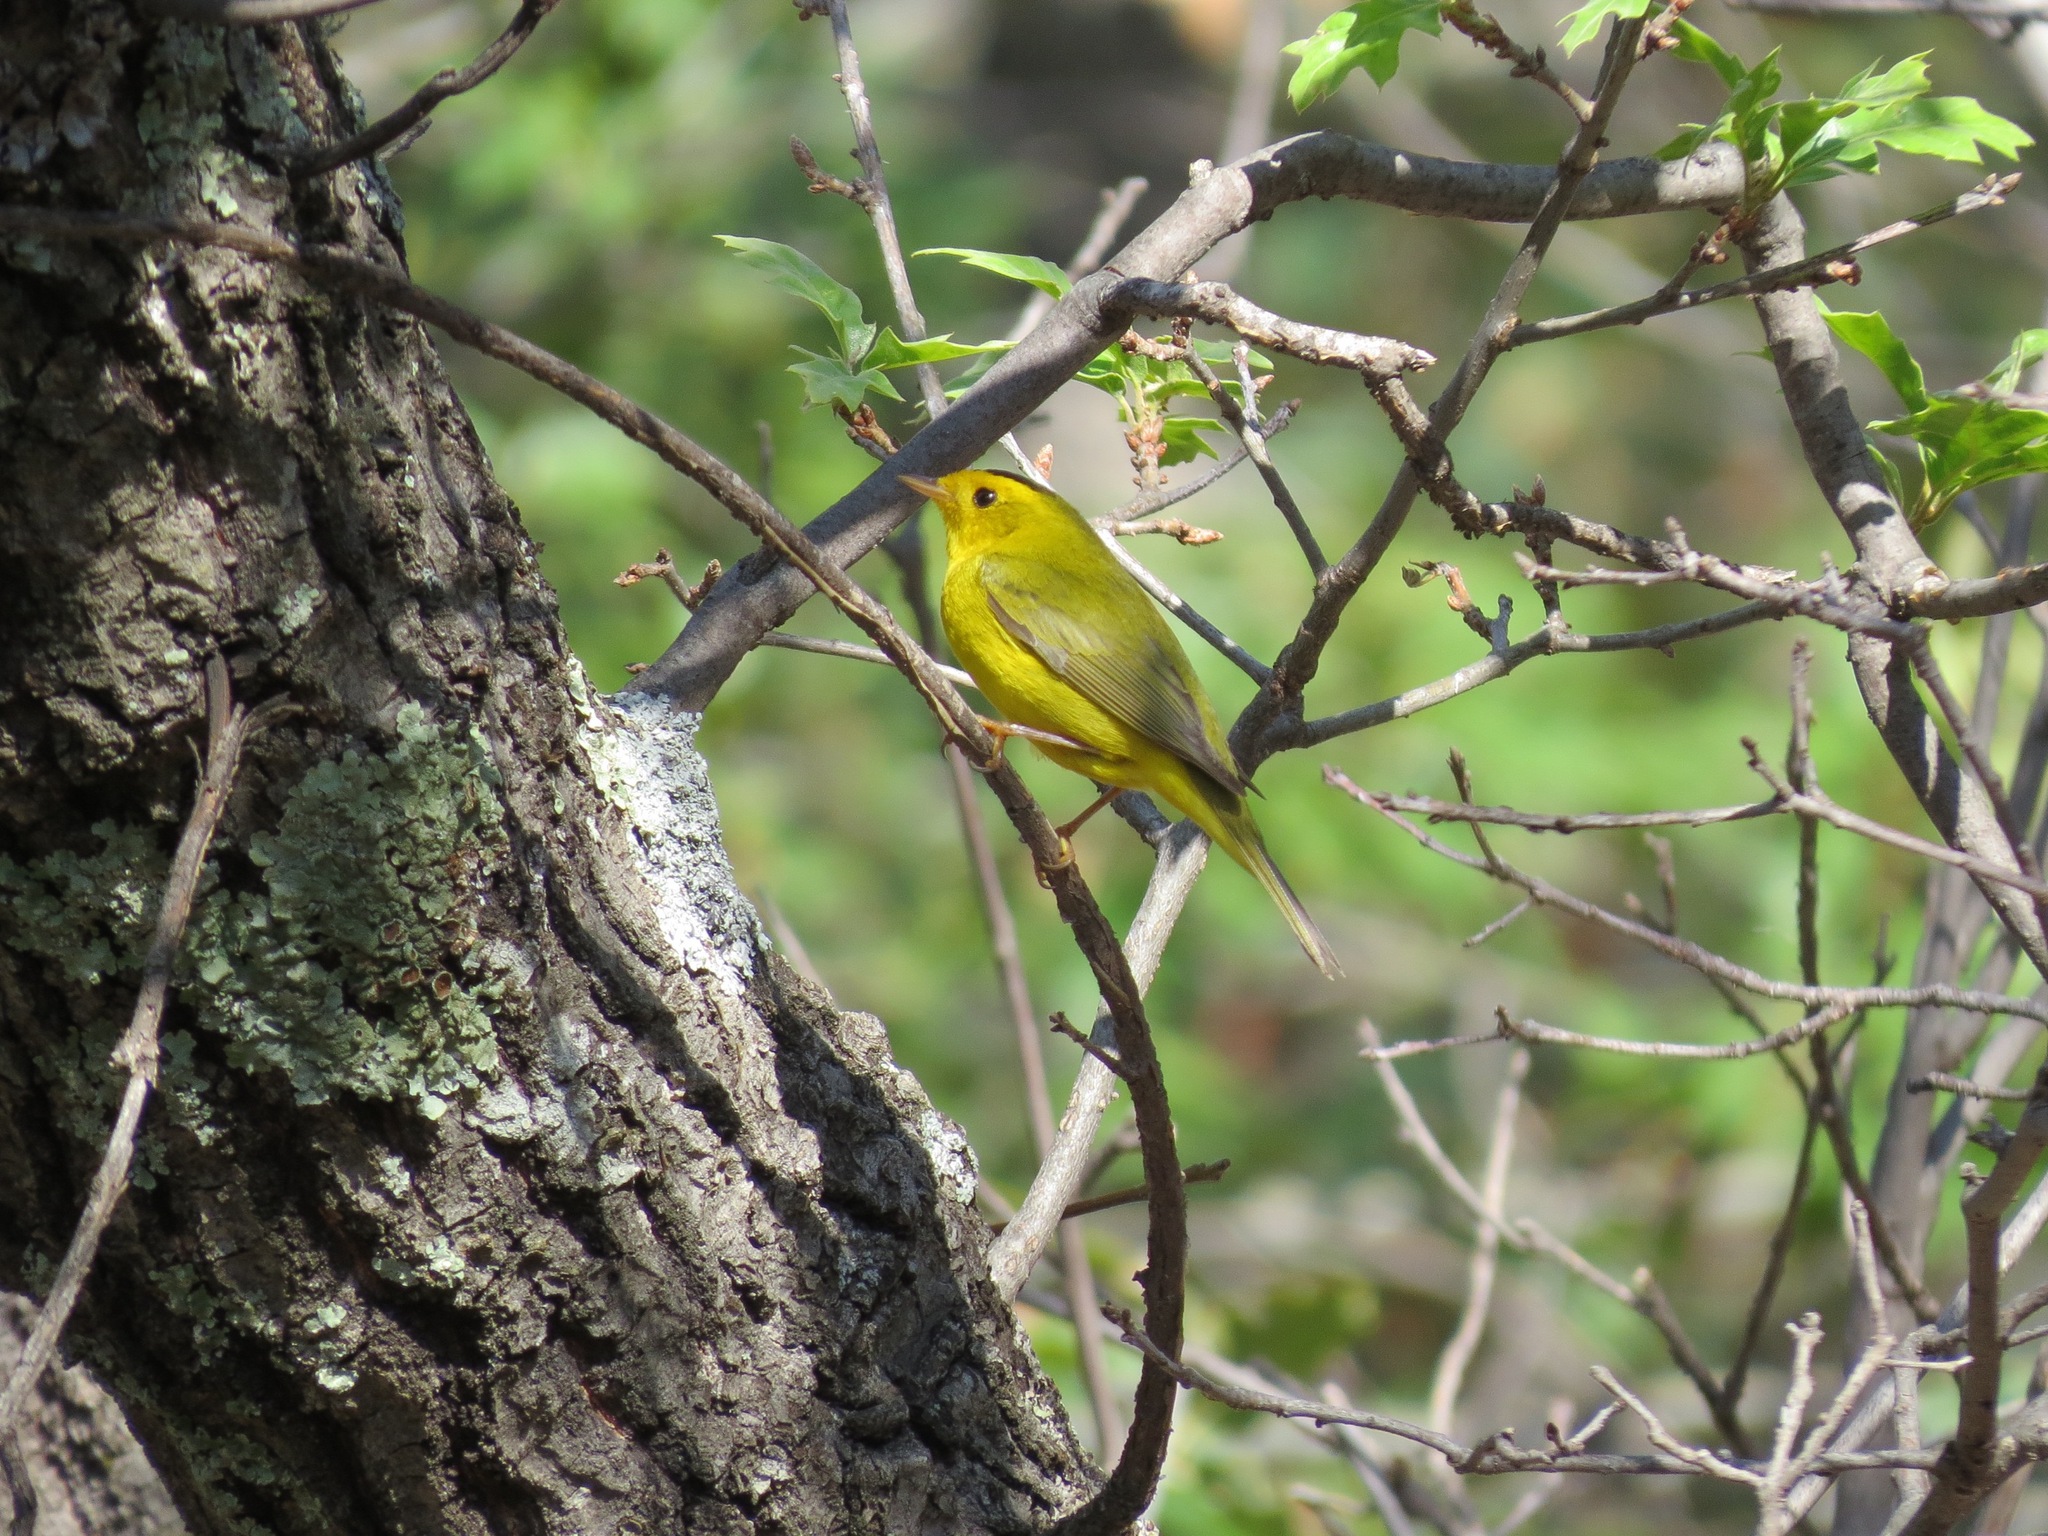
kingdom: Animalia
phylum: Chordata
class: Aves
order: Passeriformes
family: Parulidae
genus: Cardellina
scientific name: Cardellina pusilla
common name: Wilson's warbler
